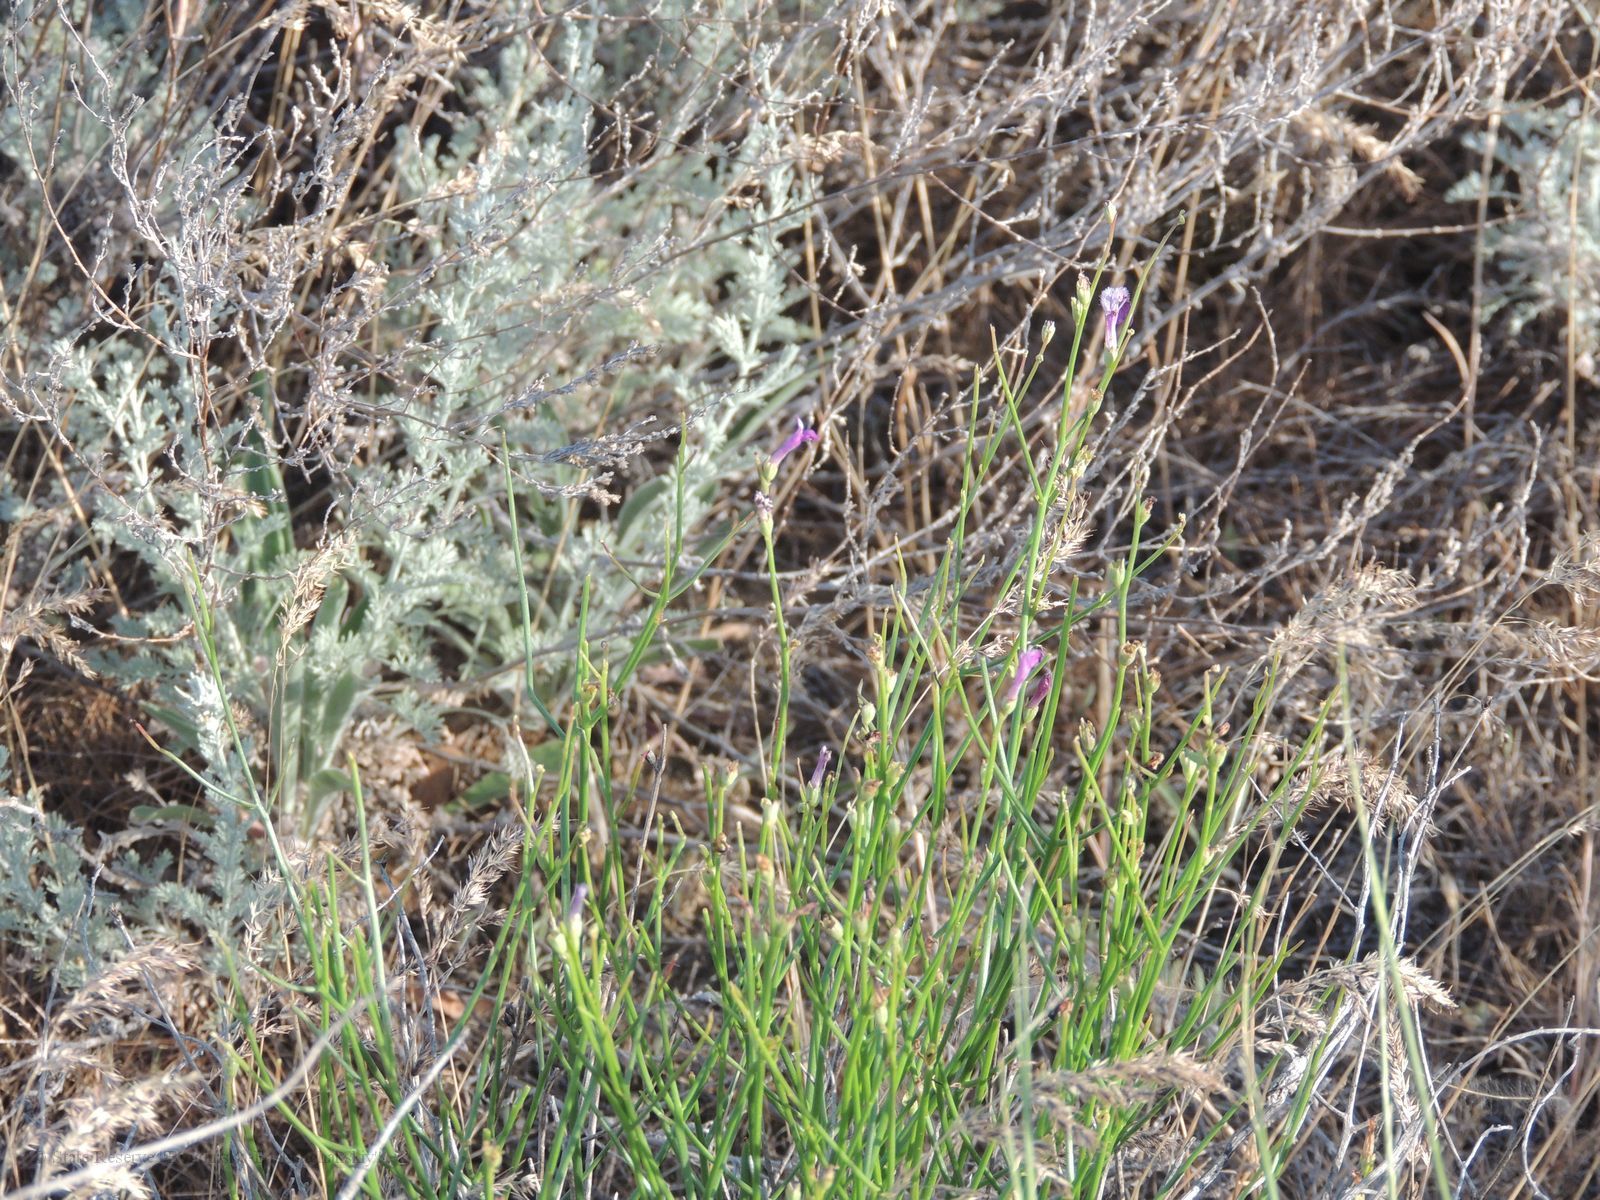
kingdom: Plantae
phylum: Tracheophyta
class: Magnoliopsida
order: Lamiales
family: Mazaceae
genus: Dodartia
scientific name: Dodartia orientalis
